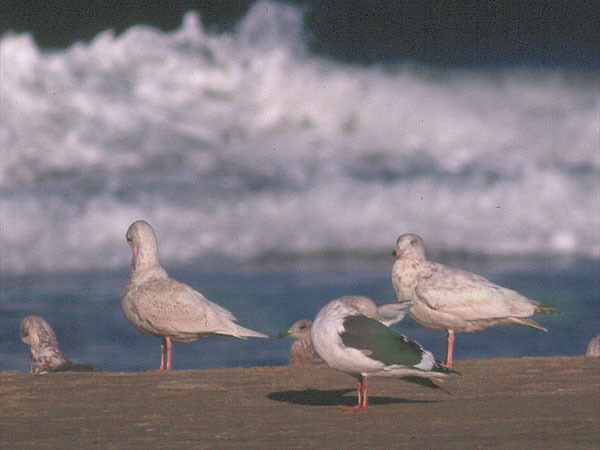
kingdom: Animalia
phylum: Chordata
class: Aves
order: Charadriiformes
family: Laridae
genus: Larus
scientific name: Larus hyperboreus
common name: Glaucous gull
